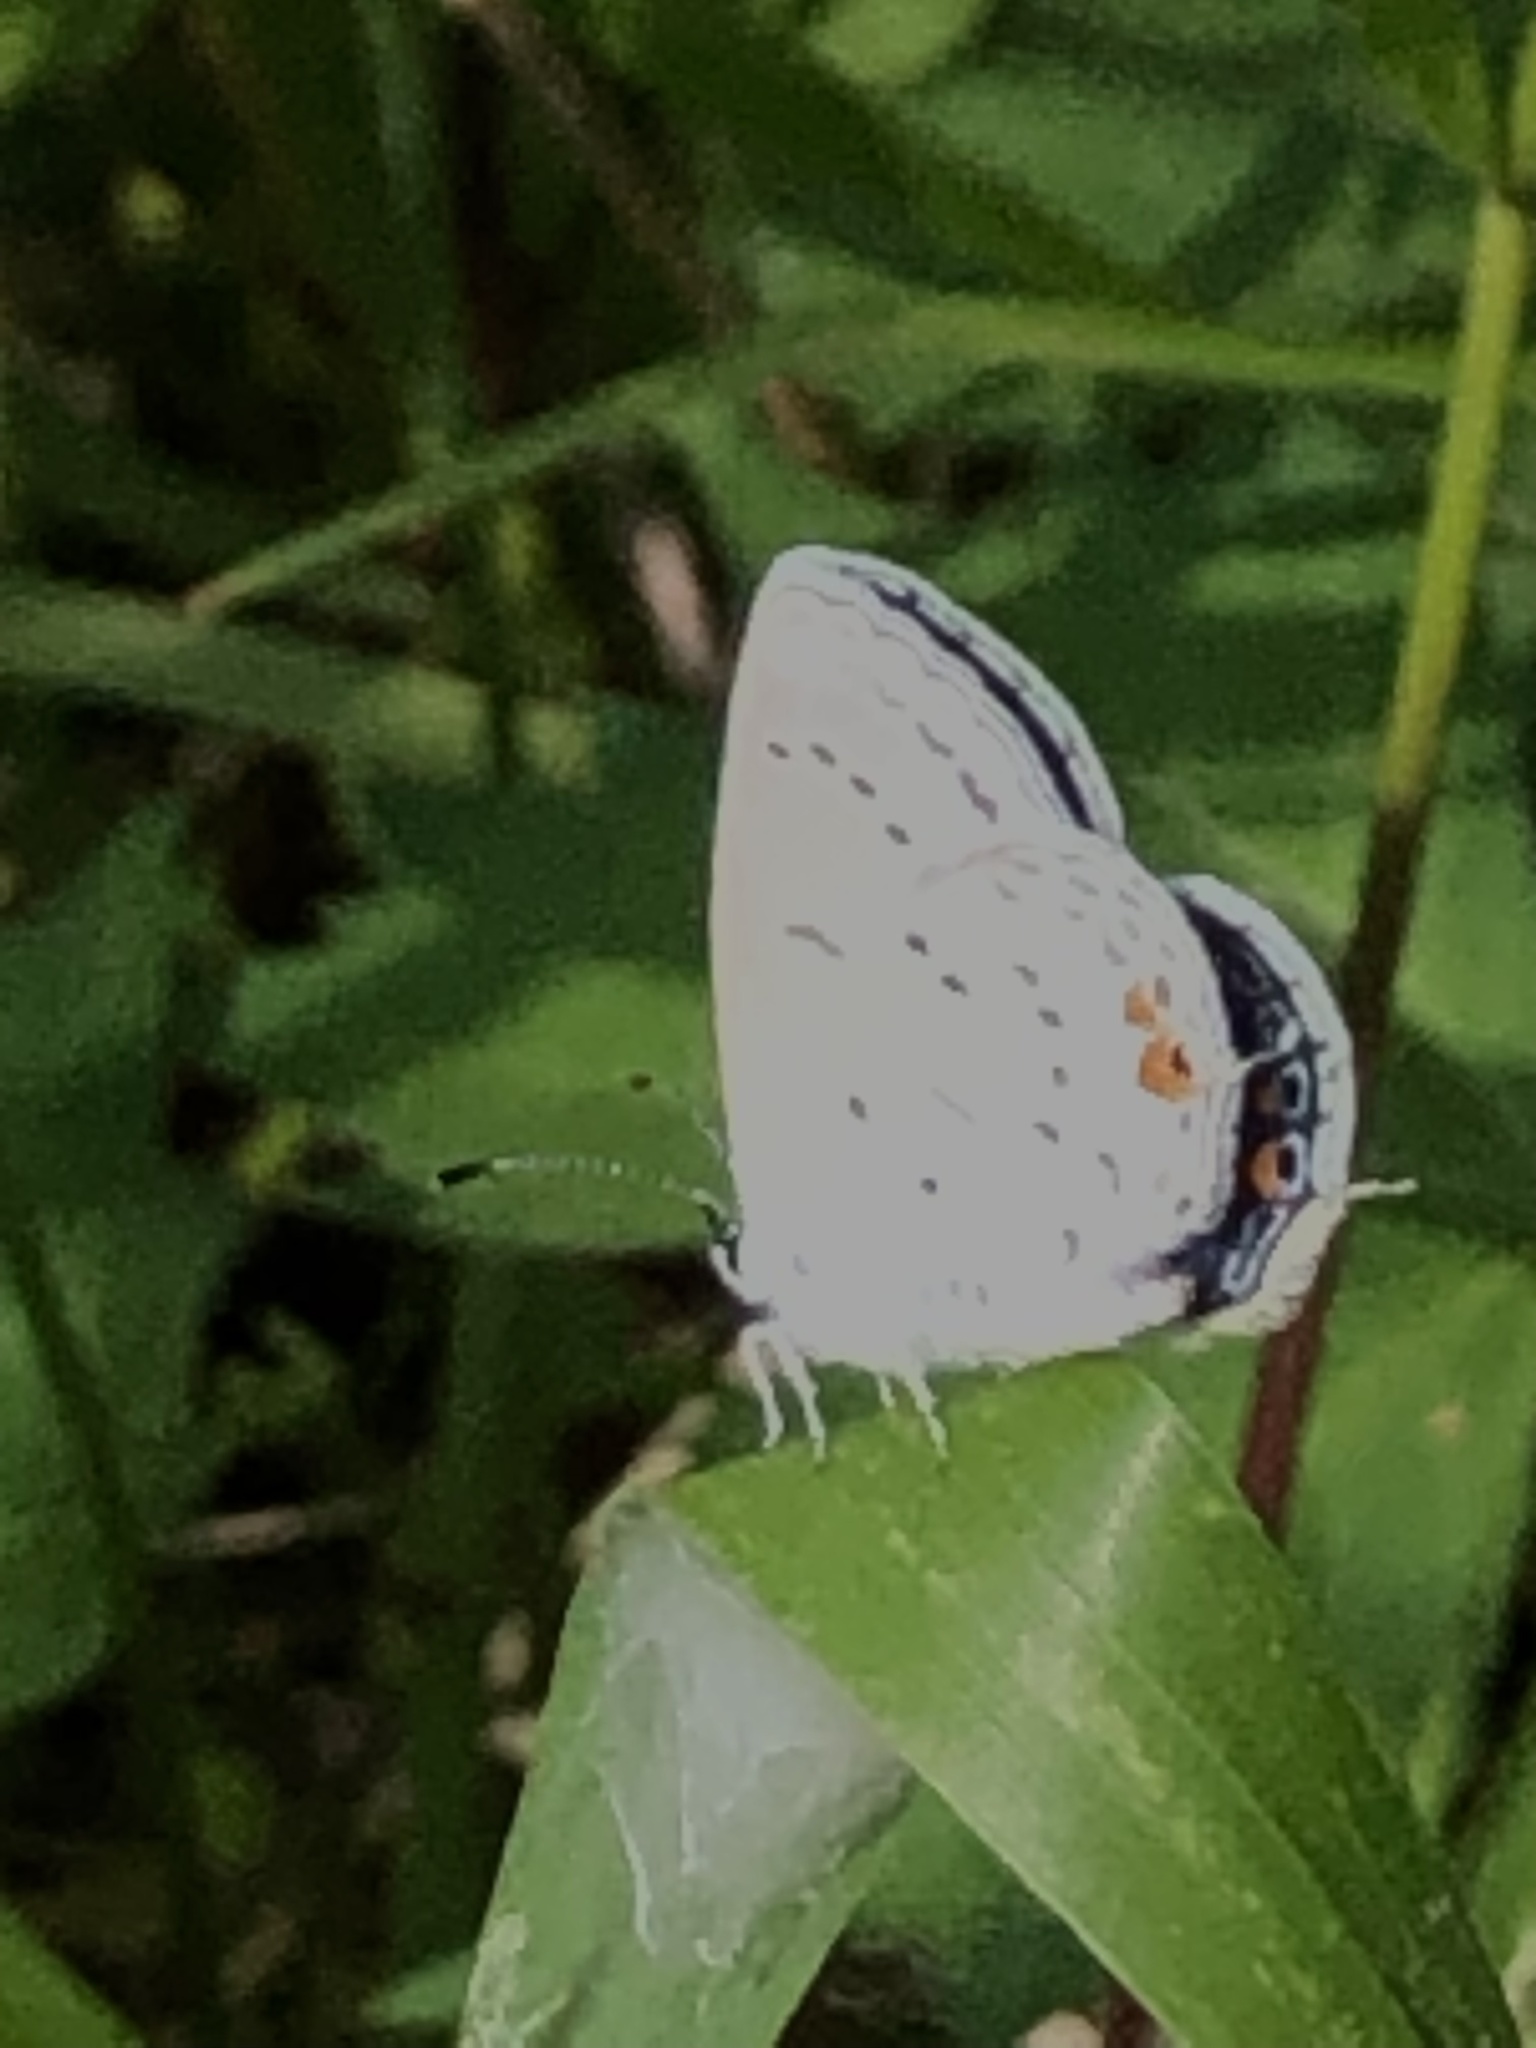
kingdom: Animalia
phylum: Arthropoda
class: Insecta
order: Lepidoptera
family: Lycaenidae
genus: Elkalyce
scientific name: Elkalyce comyntas
